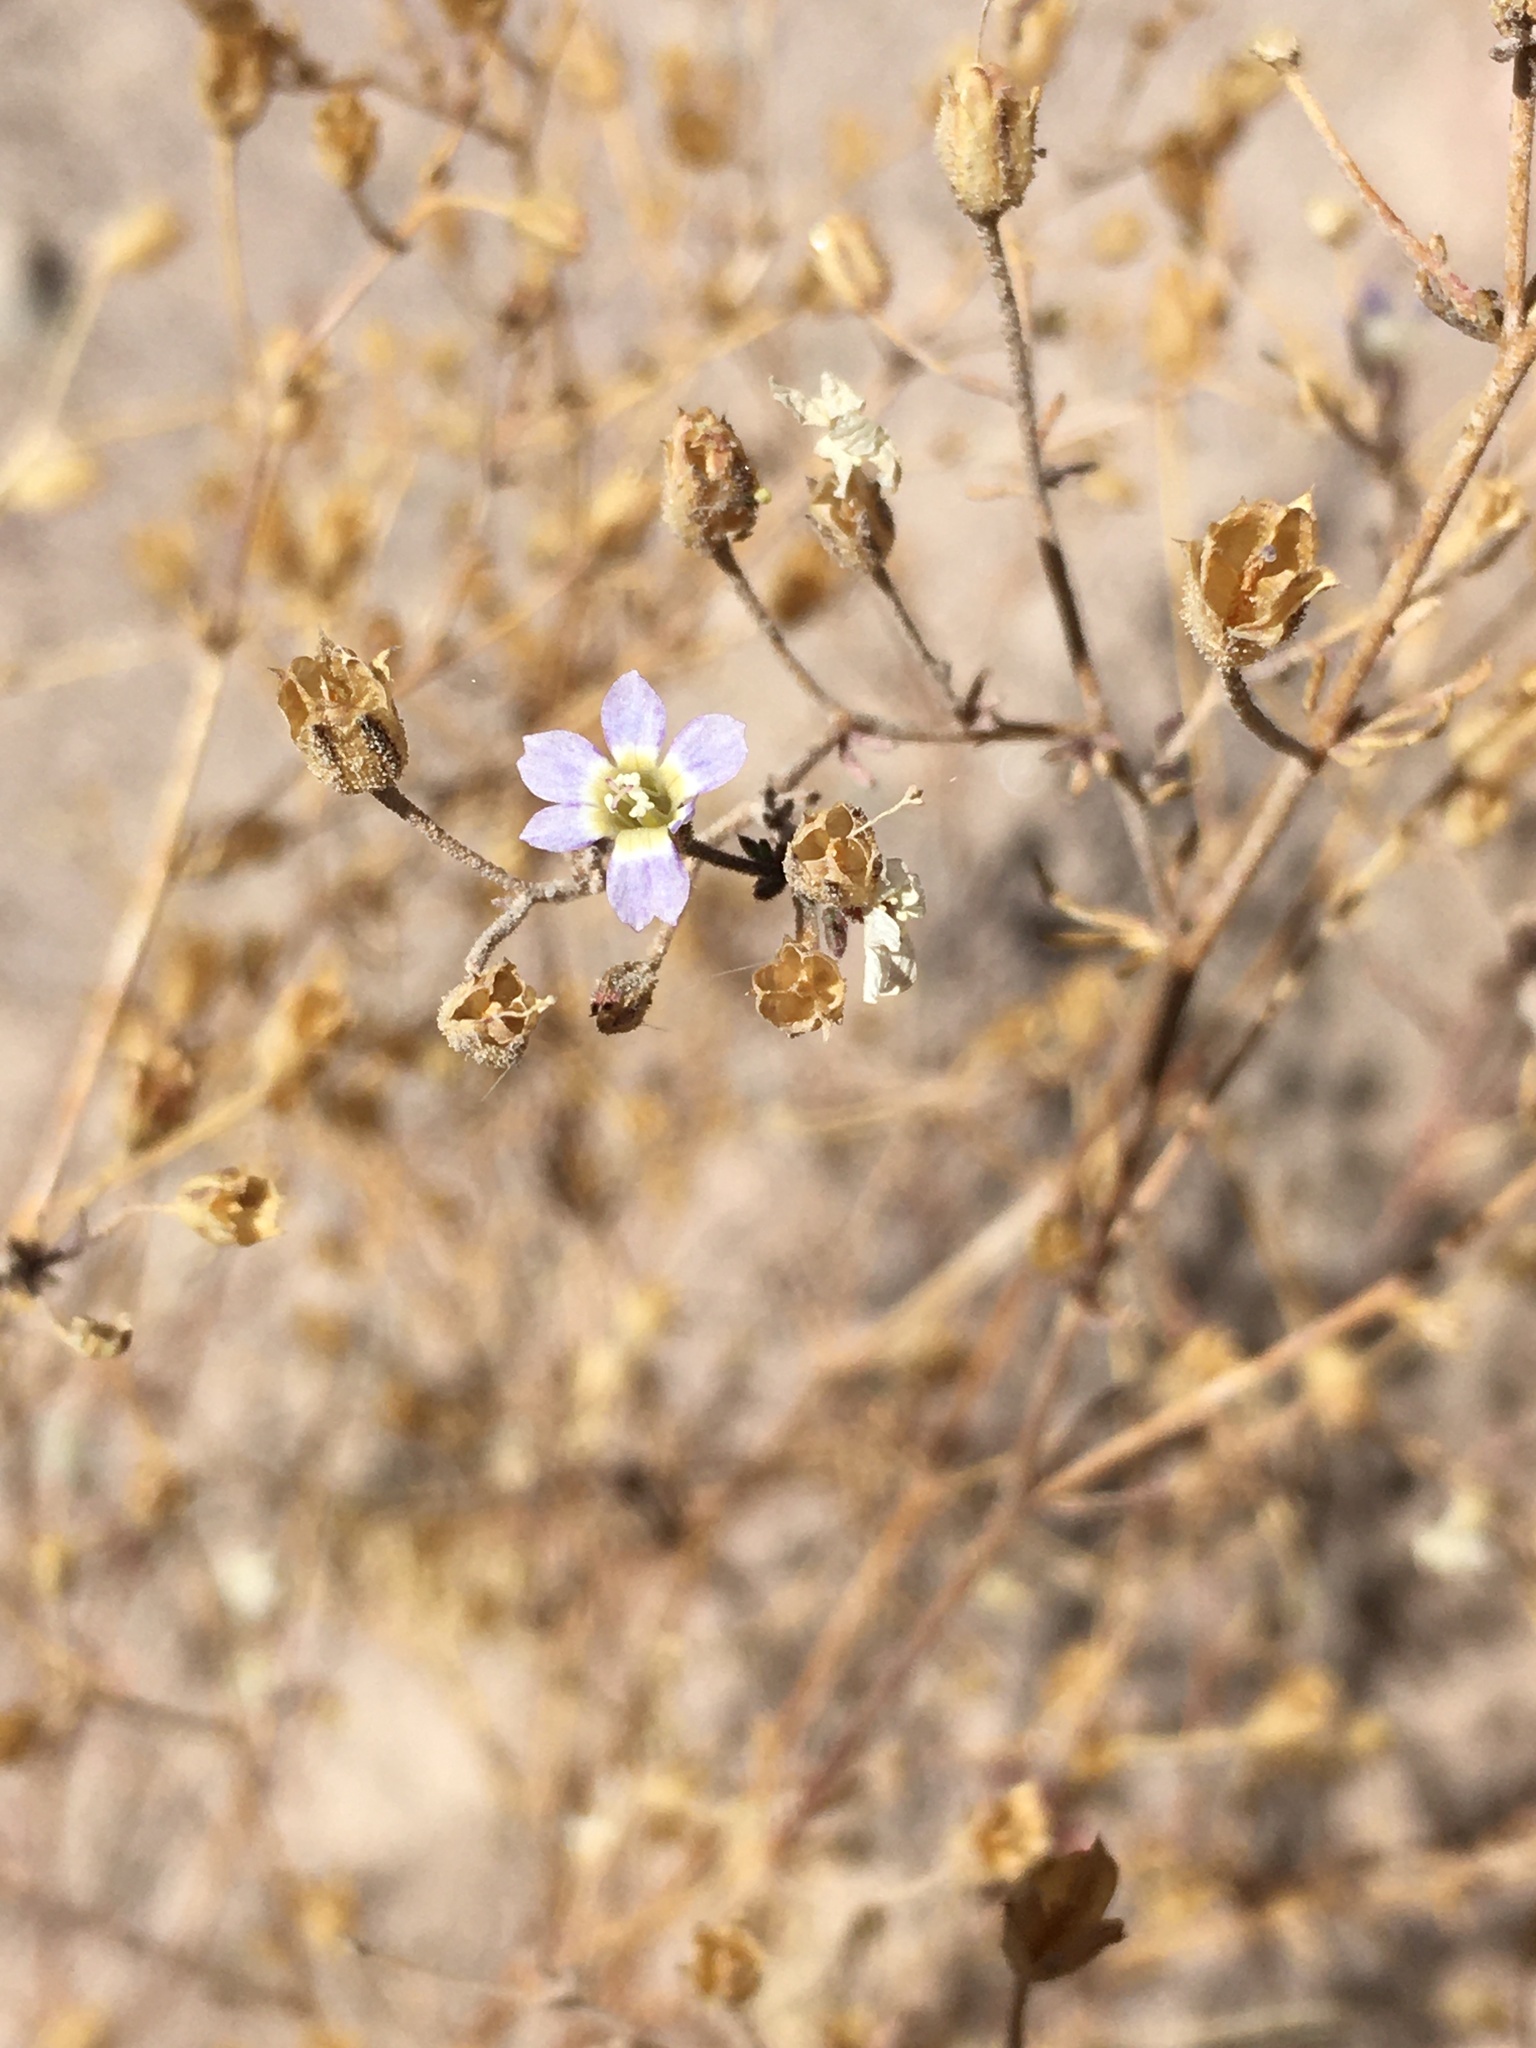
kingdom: Plantae
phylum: Tracheophyta
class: Magnoliopsida
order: Ericales
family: Polemoniaceae
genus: Dayia
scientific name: Dayia glutinosa
